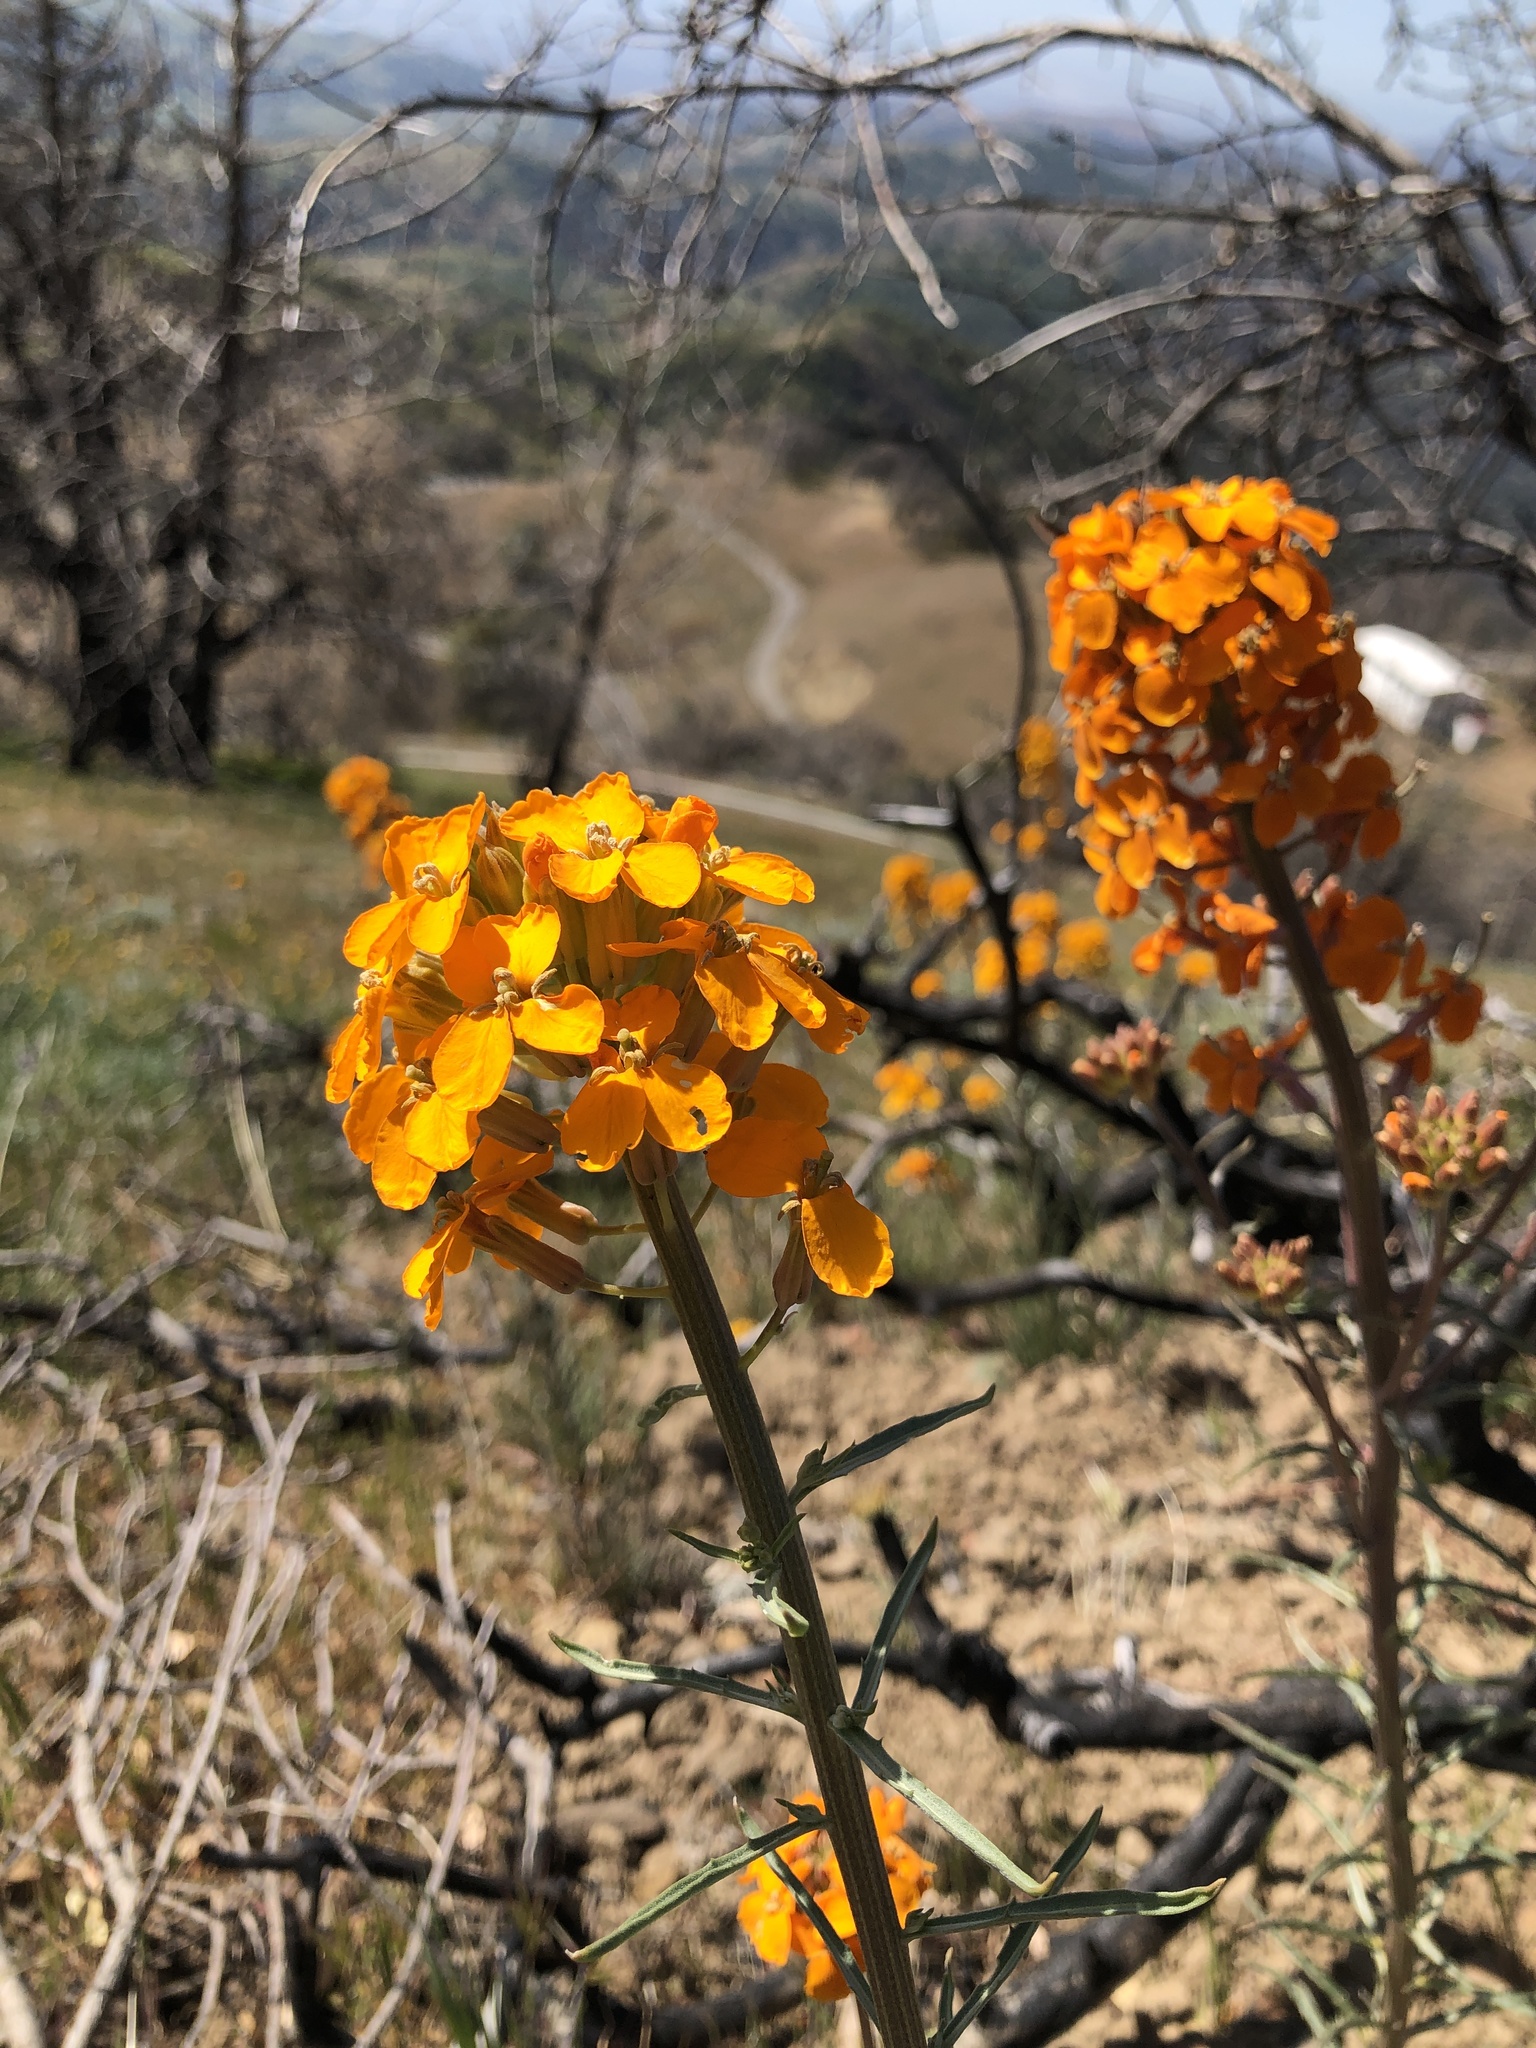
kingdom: Plantae
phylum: Tracheophyta
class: Magnoliopsida
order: Brassicales
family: Brassicaceae
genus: Erysimum
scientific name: Erysimum capitatum
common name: Western wallflower
